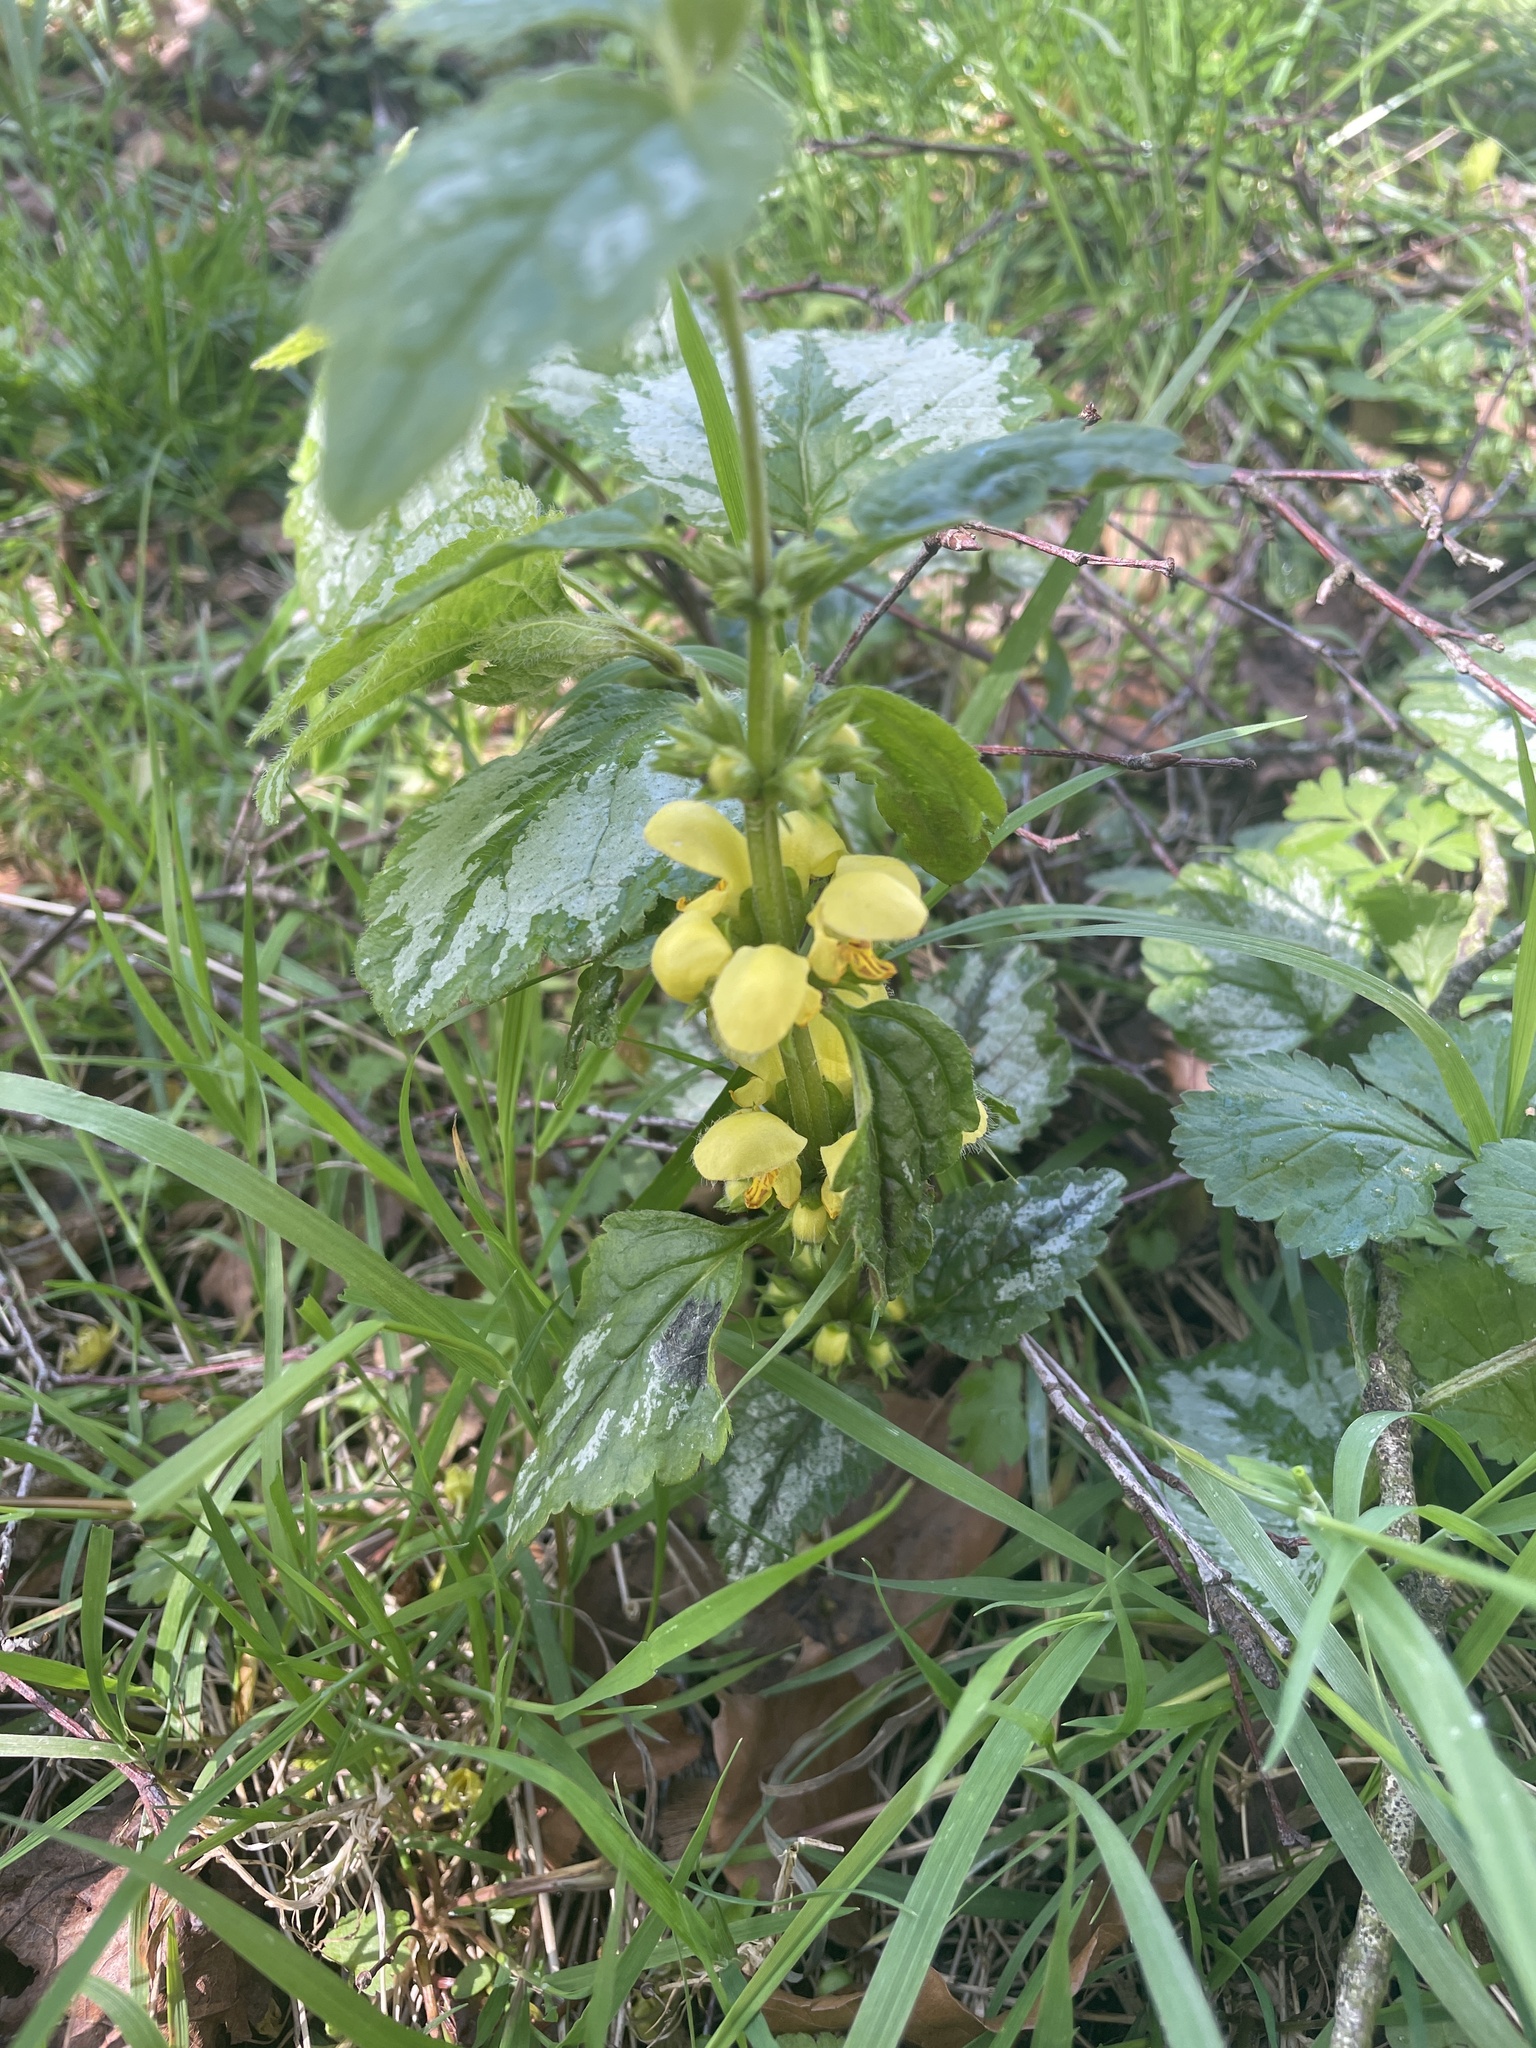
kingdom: Plantae
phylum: Tracheophyta
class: Magnoliopsida
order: Lamiales
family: Lamiaceae
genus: Lamium
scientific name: Lamium galeobdolon
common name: Yellow archangel
